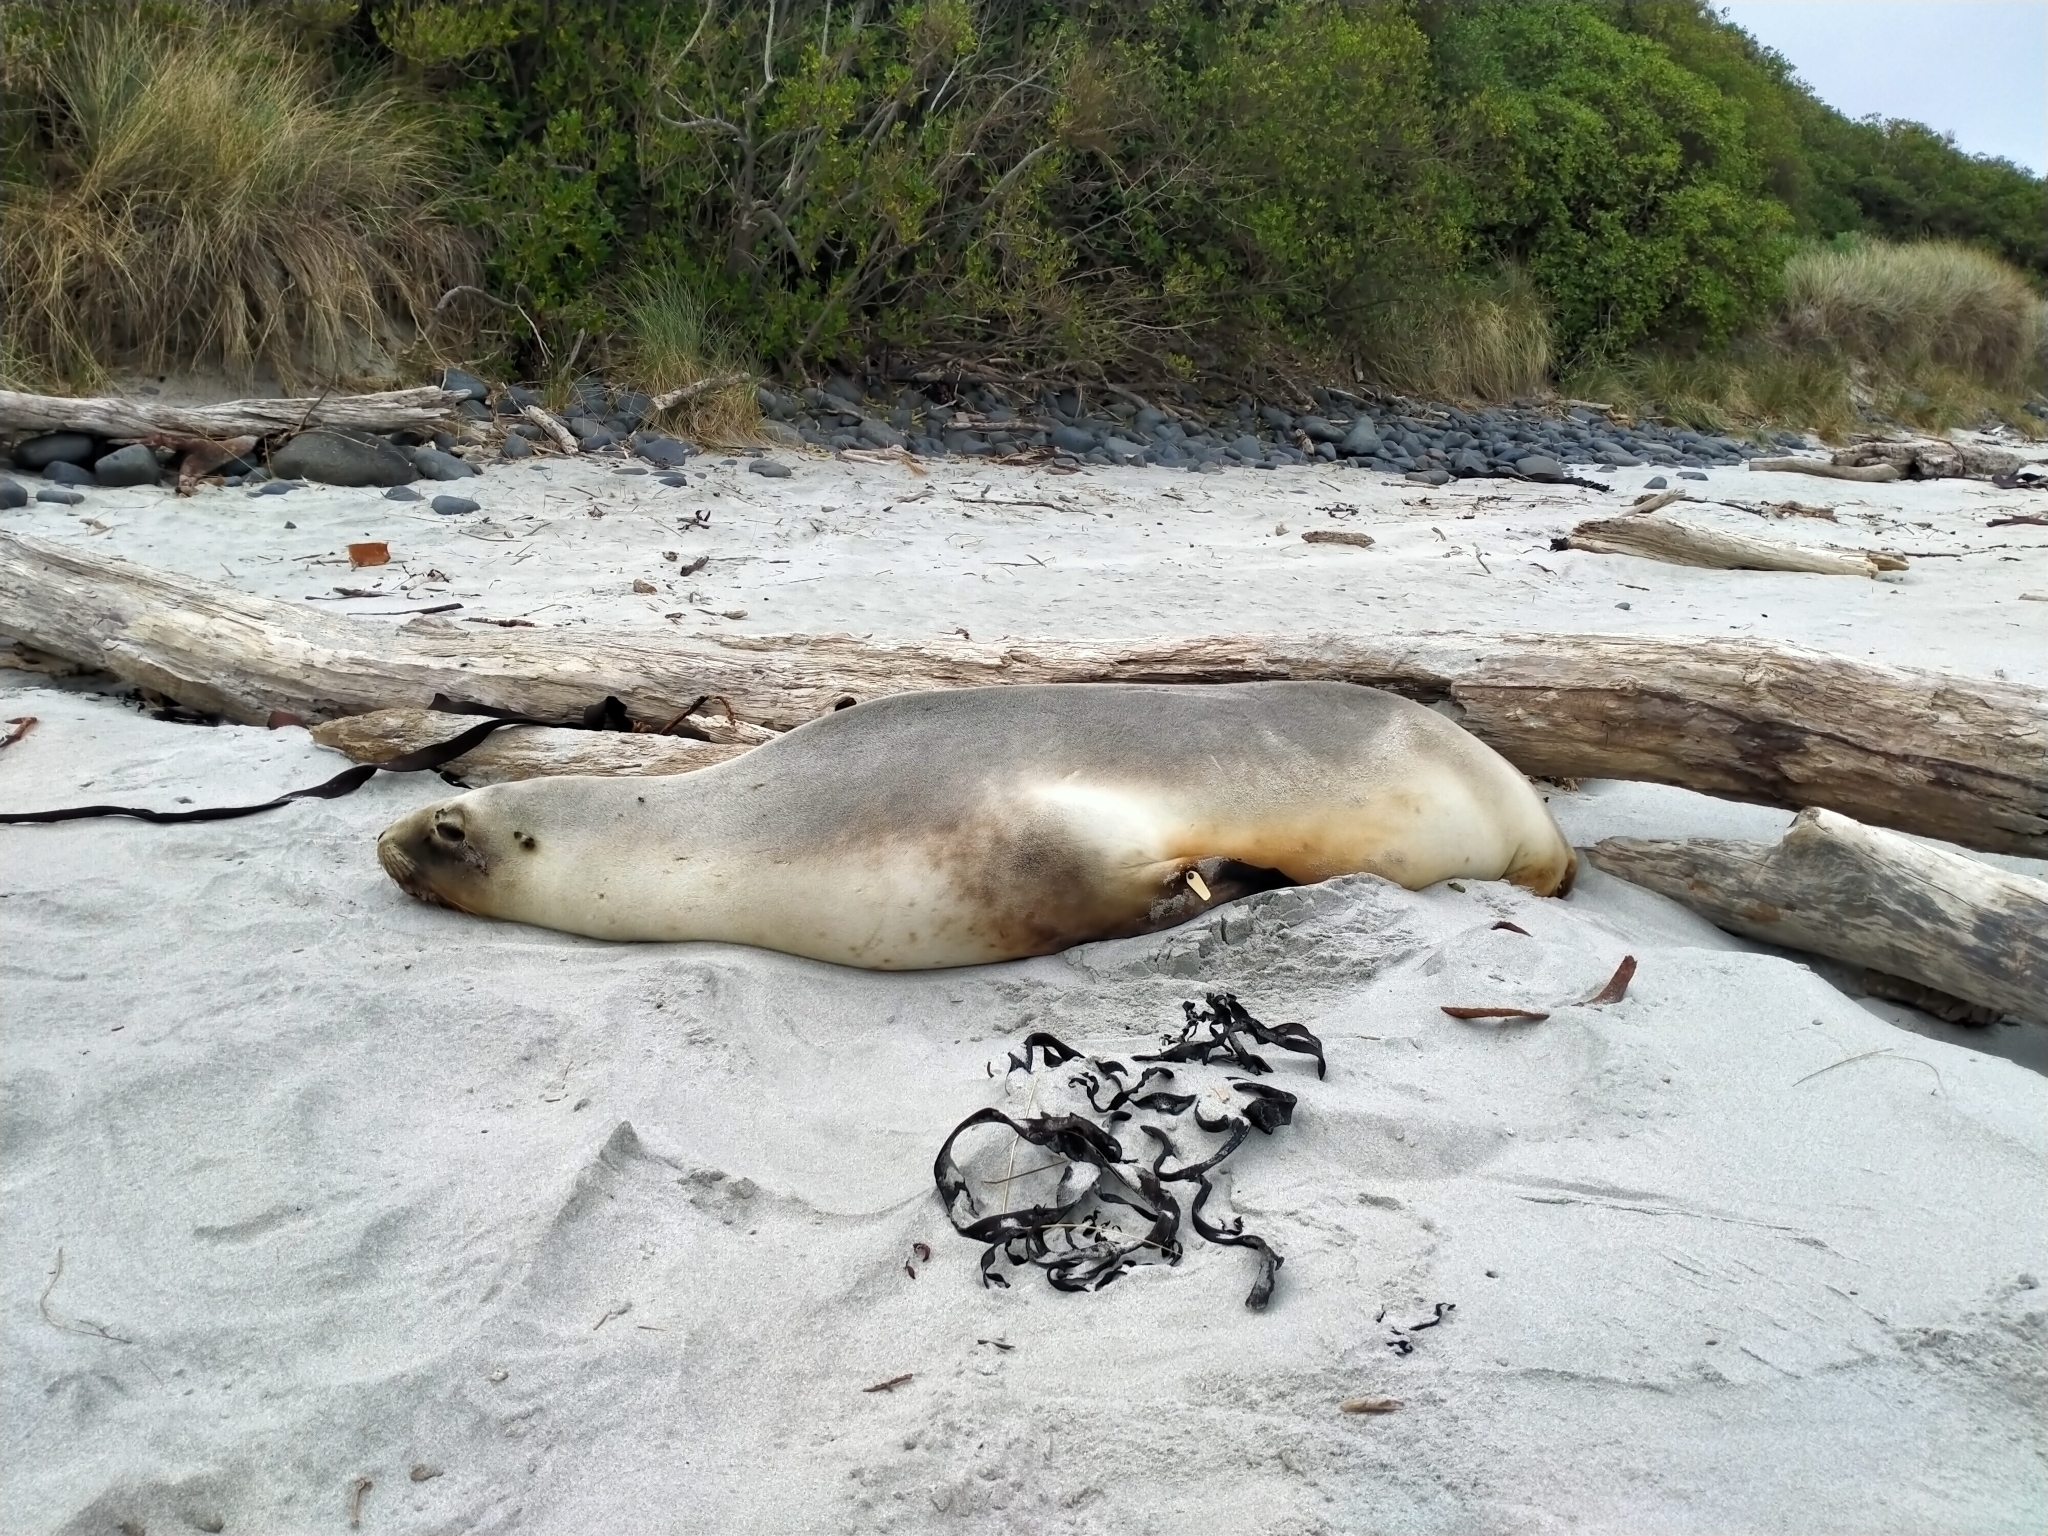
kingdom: Animalia
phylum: Chordata
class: Mammalia
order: Carnivora
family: Otariidae
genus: Phocarctos
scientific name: Phocarctos hookeri
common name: New zealand sea lion
